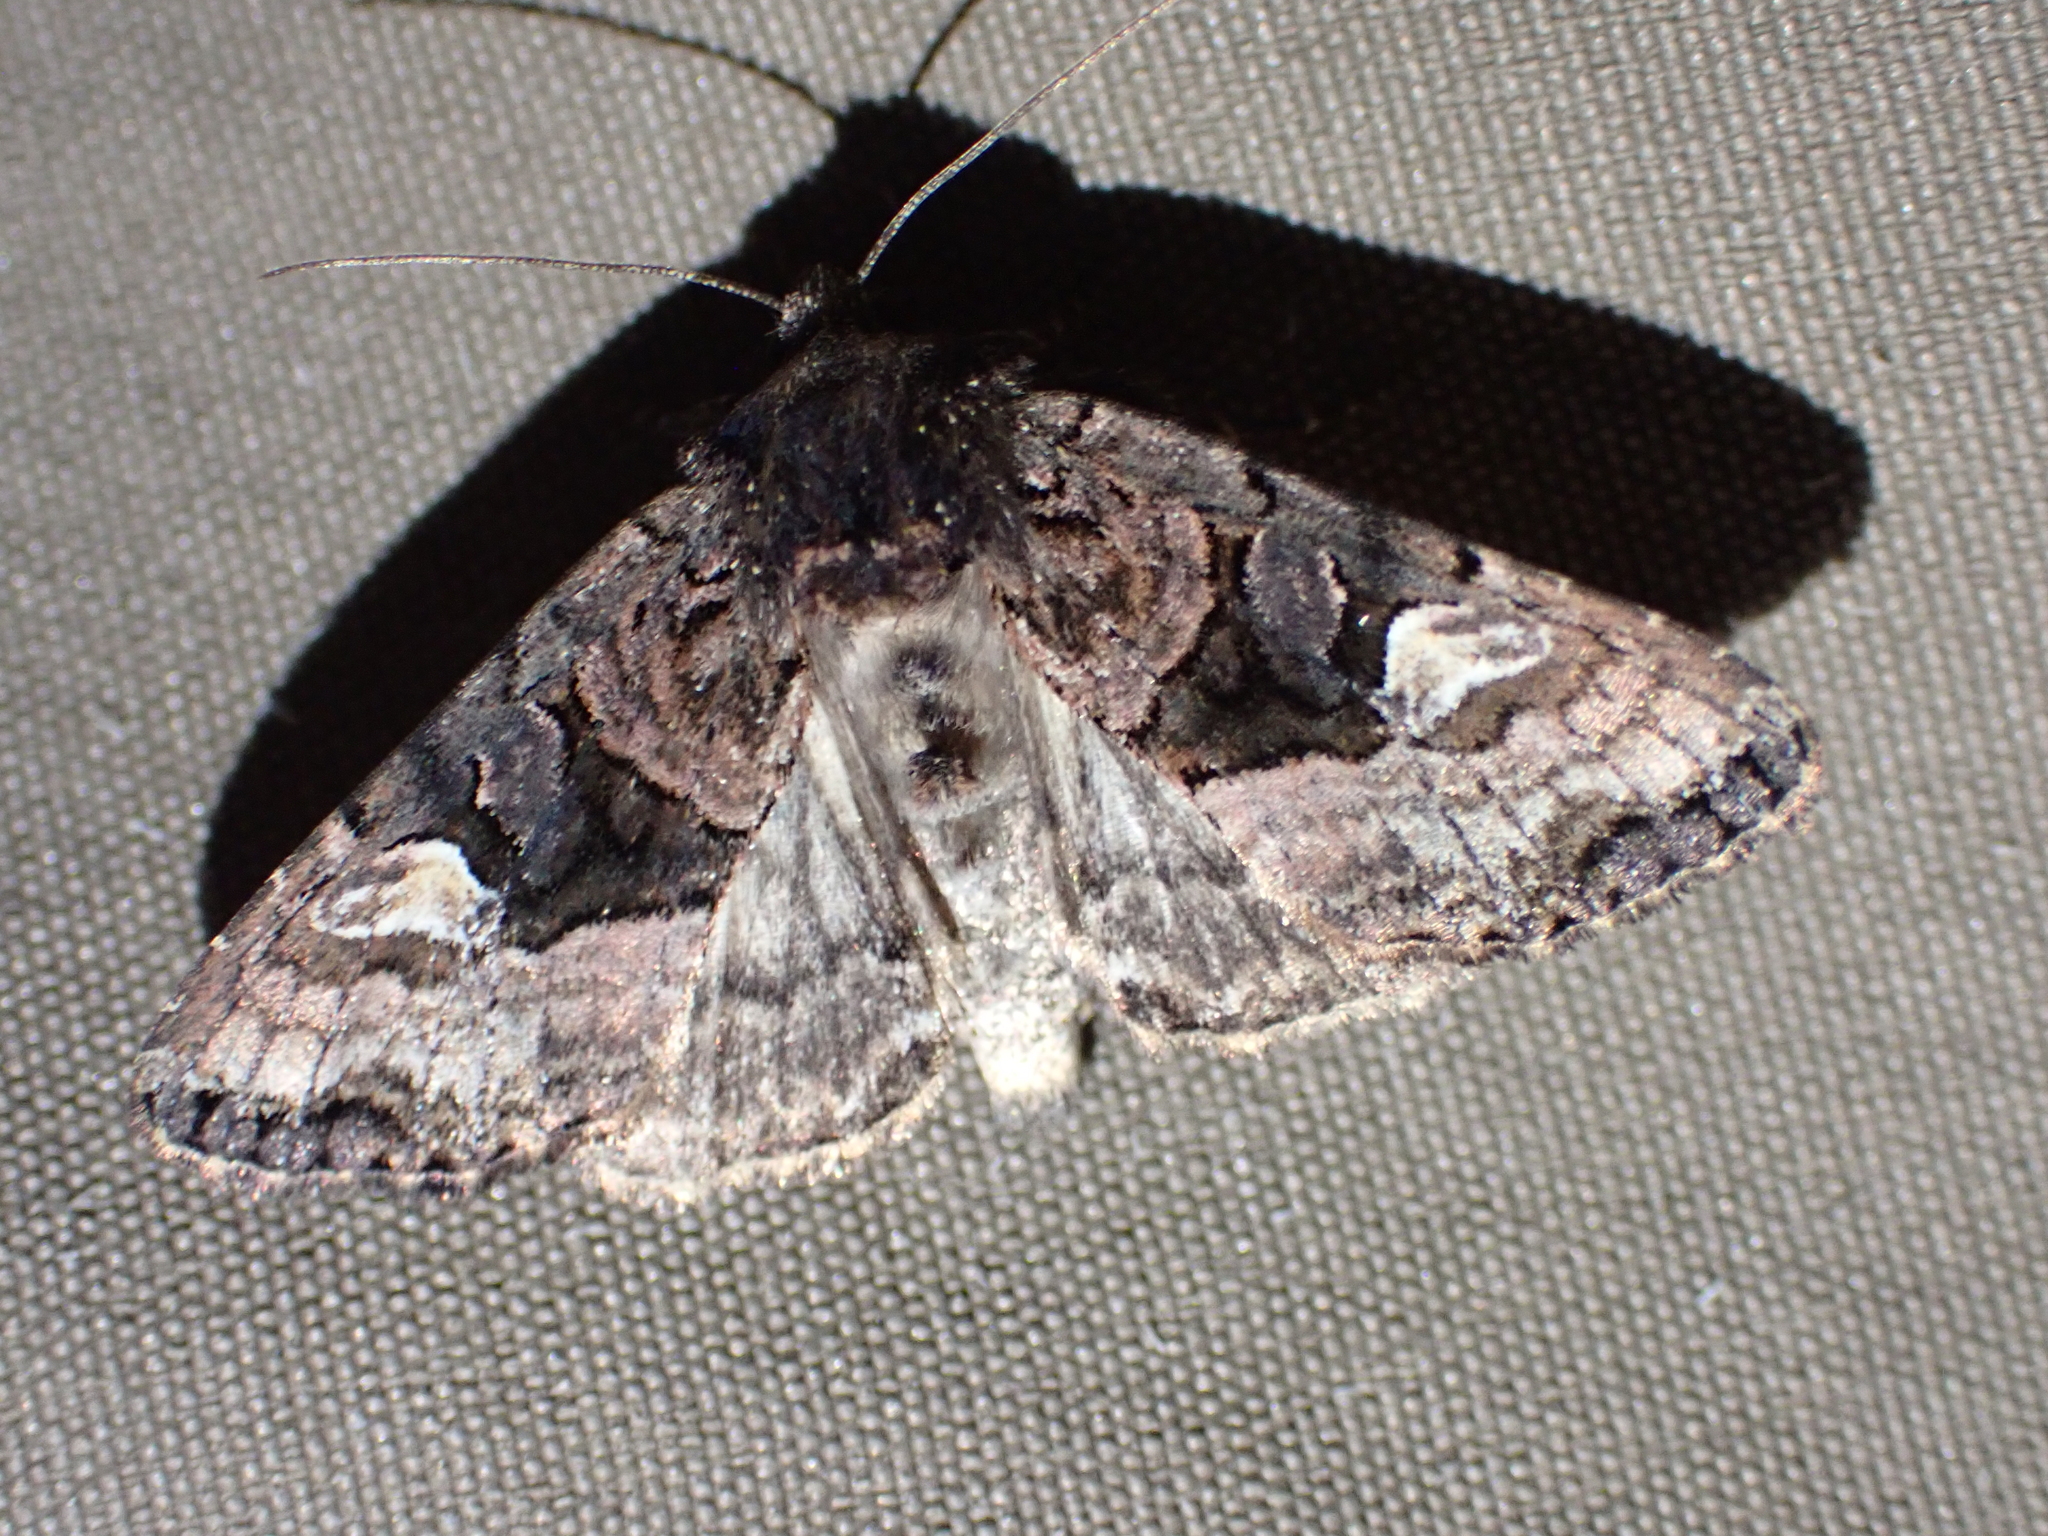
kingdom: Animalia
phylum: Arthropoda
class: Insecta
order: Lepidoptera
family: Noctuidae
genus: Euplexia
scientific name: Euplexia benesimilis
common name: American angle shades
